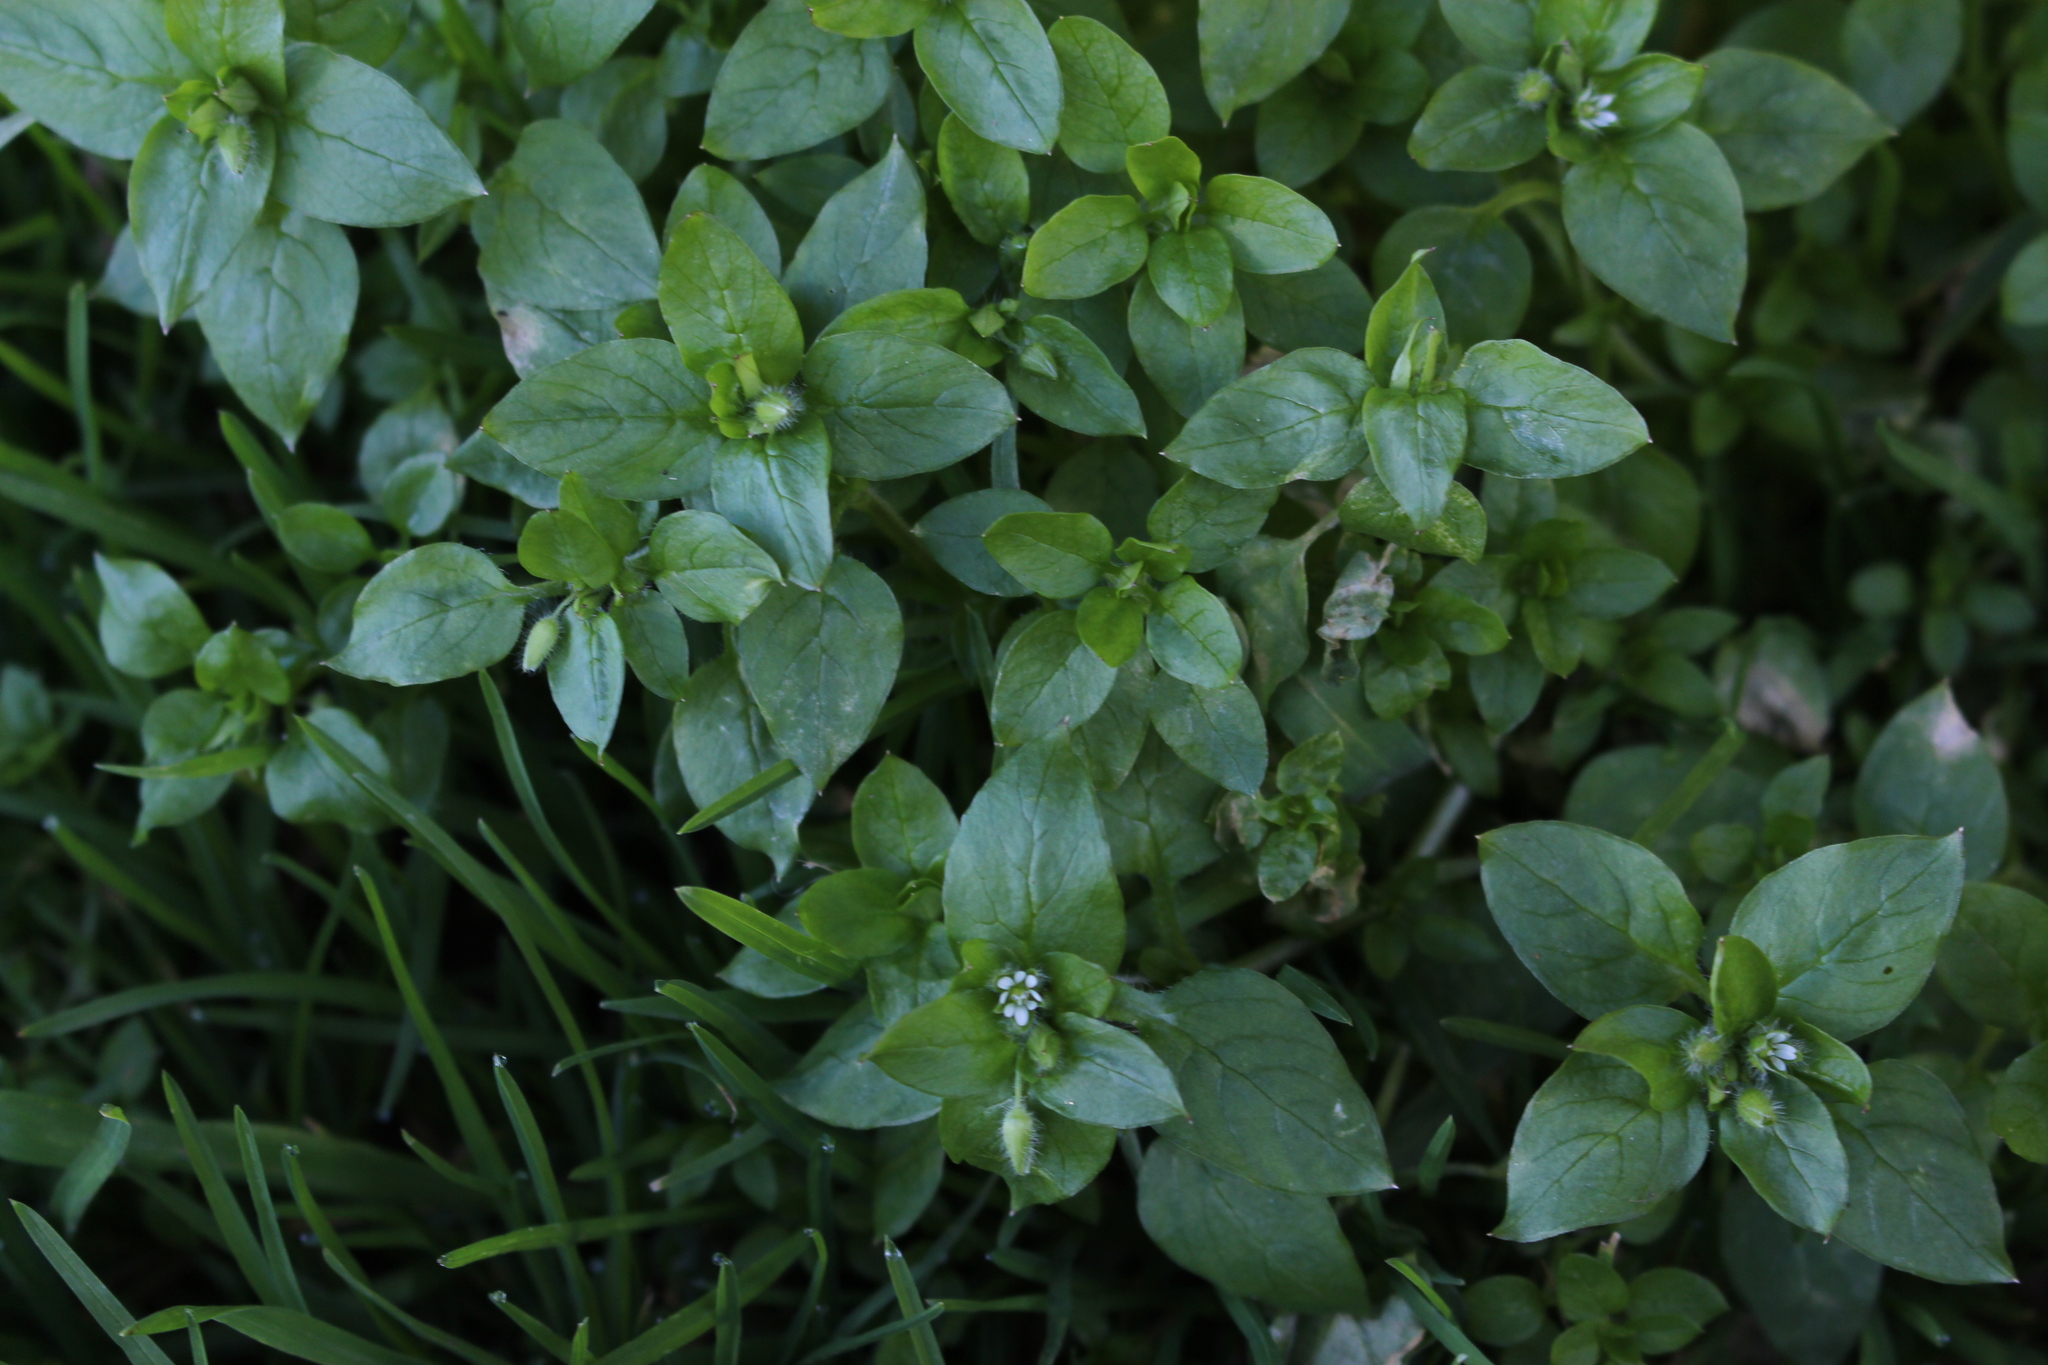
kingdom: Plantae
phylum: Tracheophyta
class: Magnoliopsida
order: Caryophyllales
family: Caryophyllaceae
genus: Stellaria
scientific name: Stellaria media
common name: Common chickweed
